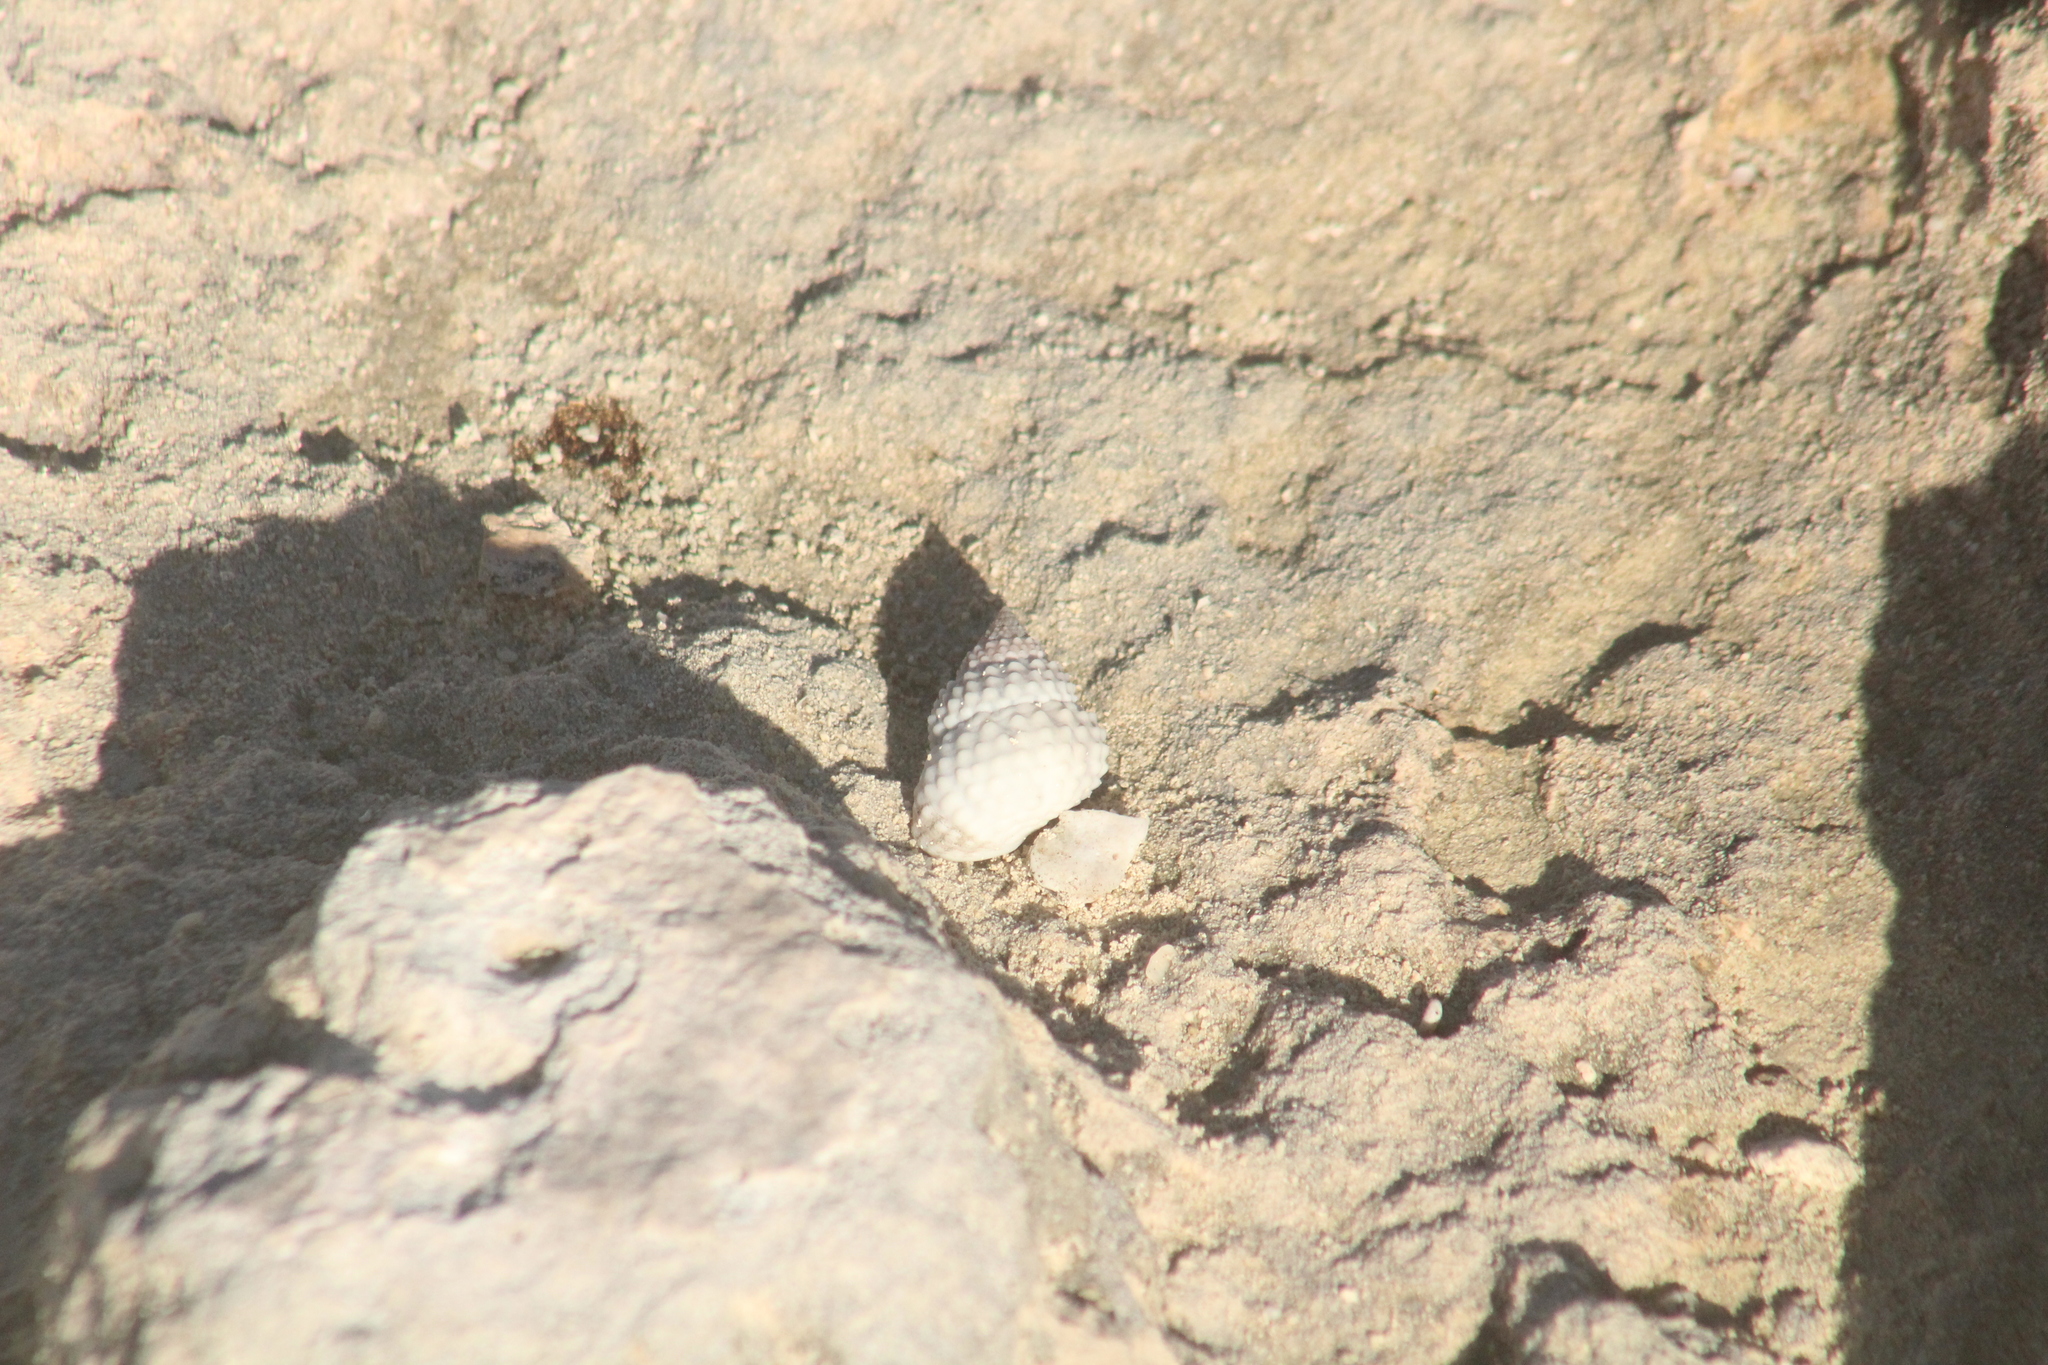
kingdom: Animalia
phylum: Mollusca
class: Gastropoda
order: Littorinimorpha
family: Littorinidae
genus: Cenchritis
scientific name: Cenchritis muricatus
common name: Beaded periwinkle
